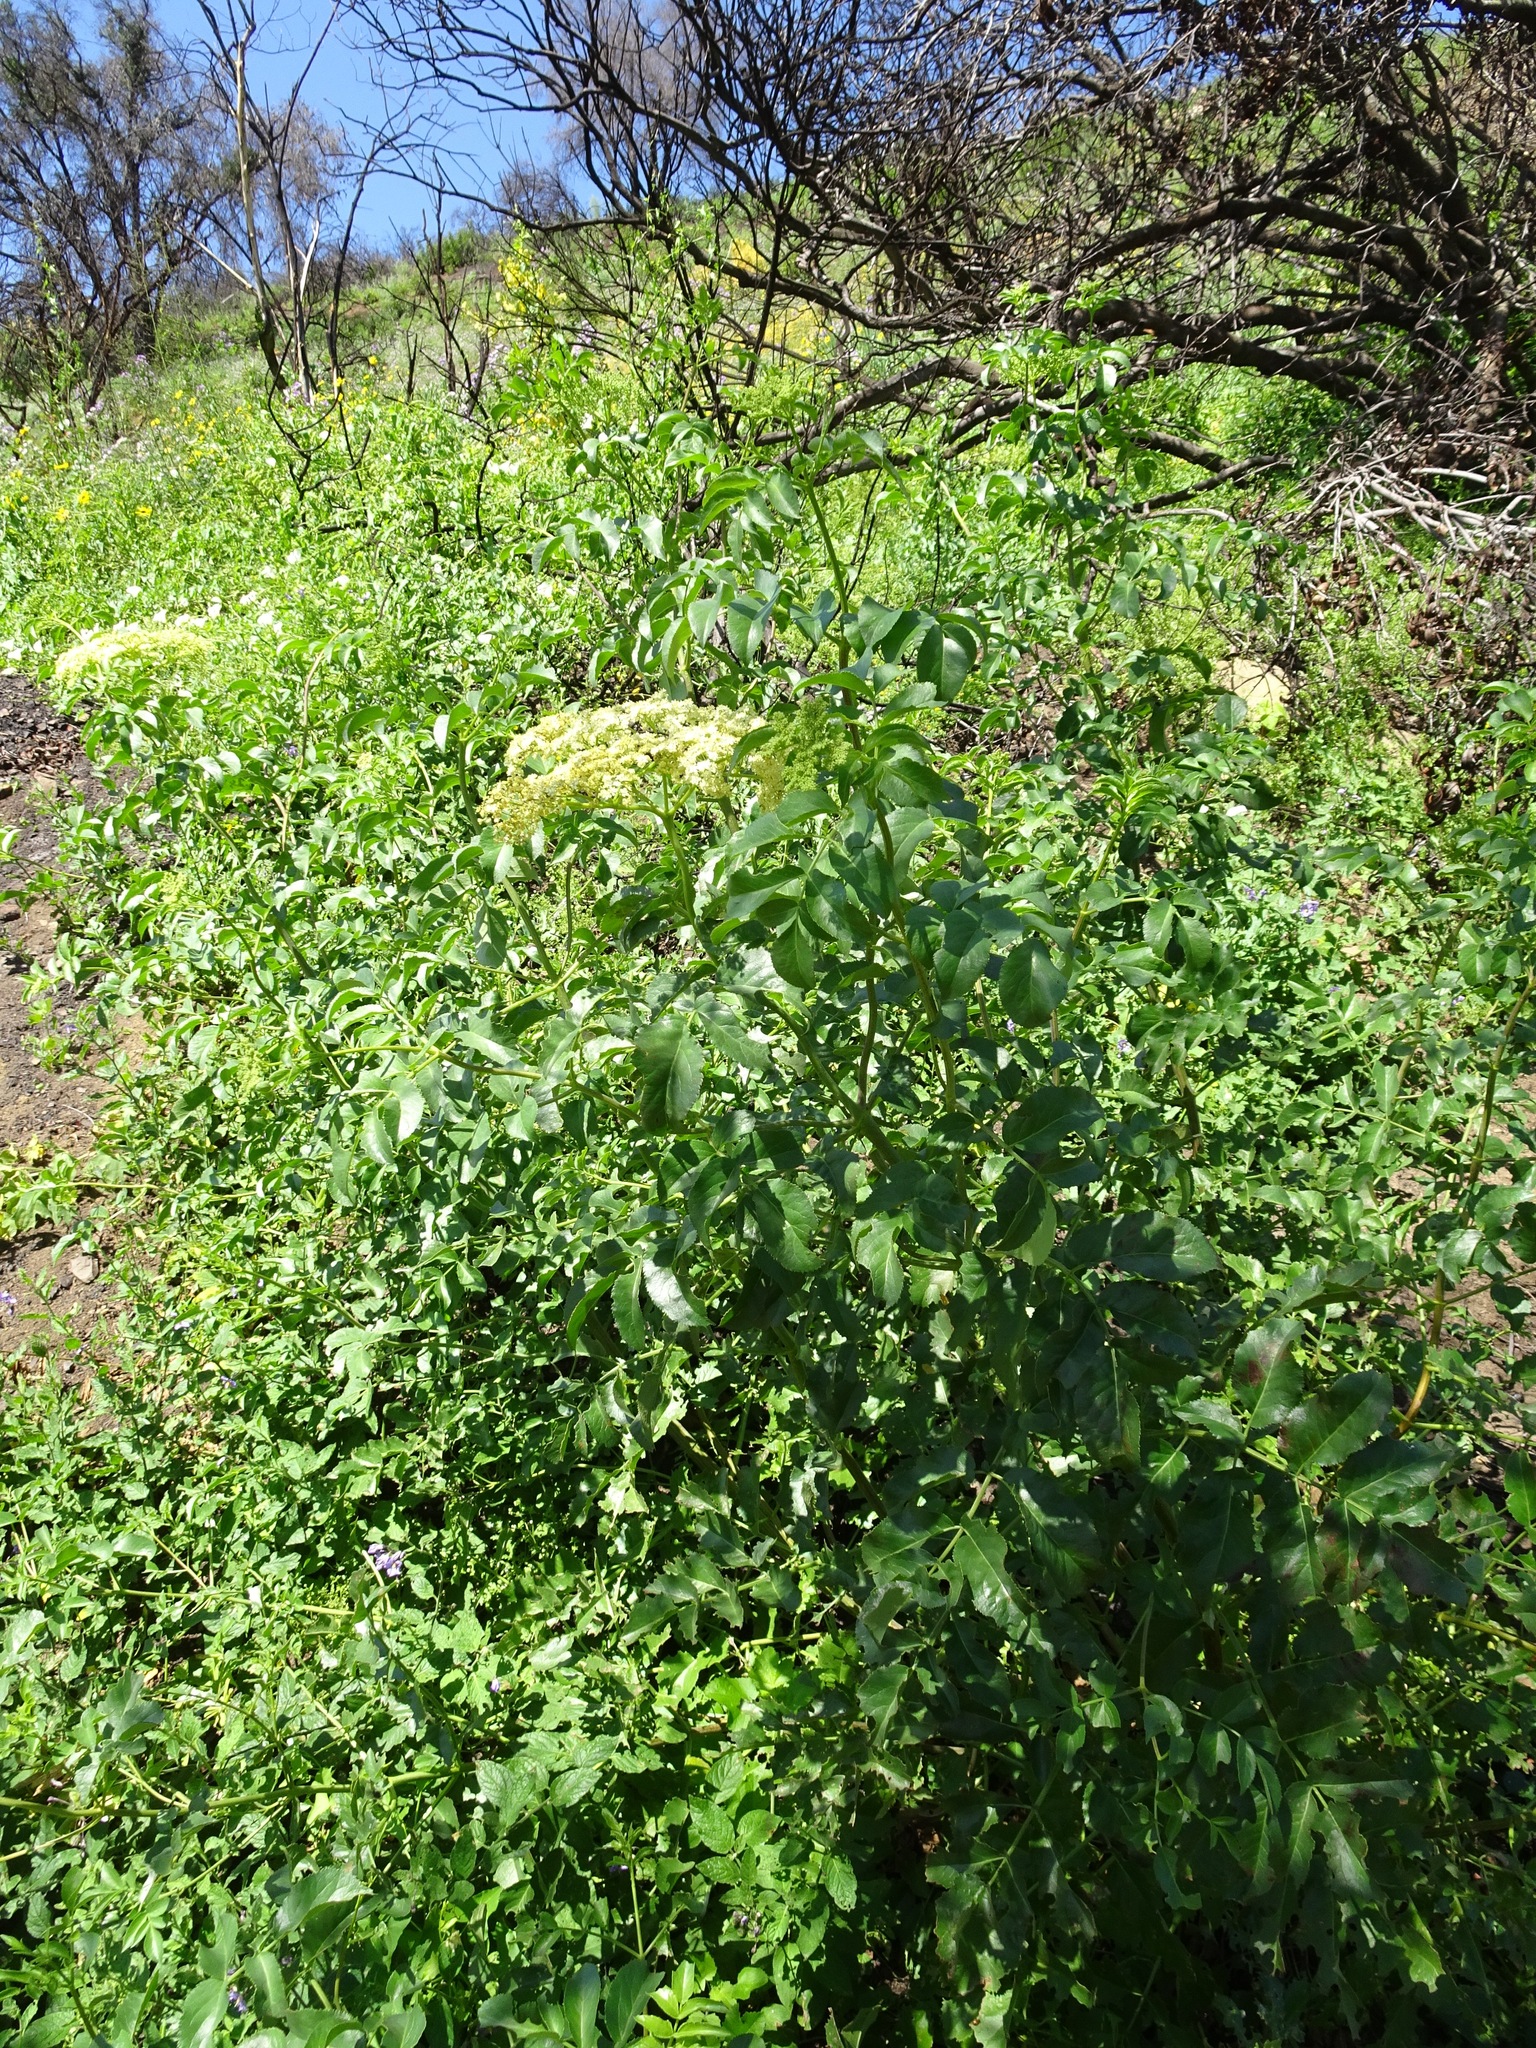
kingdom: Plantae
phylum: Tracheophyta
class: Magnoliopsida
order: Dipsacales
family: Viburnaceae
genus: Sambucus
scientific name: Sambucus cerulea
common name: Blue elder
